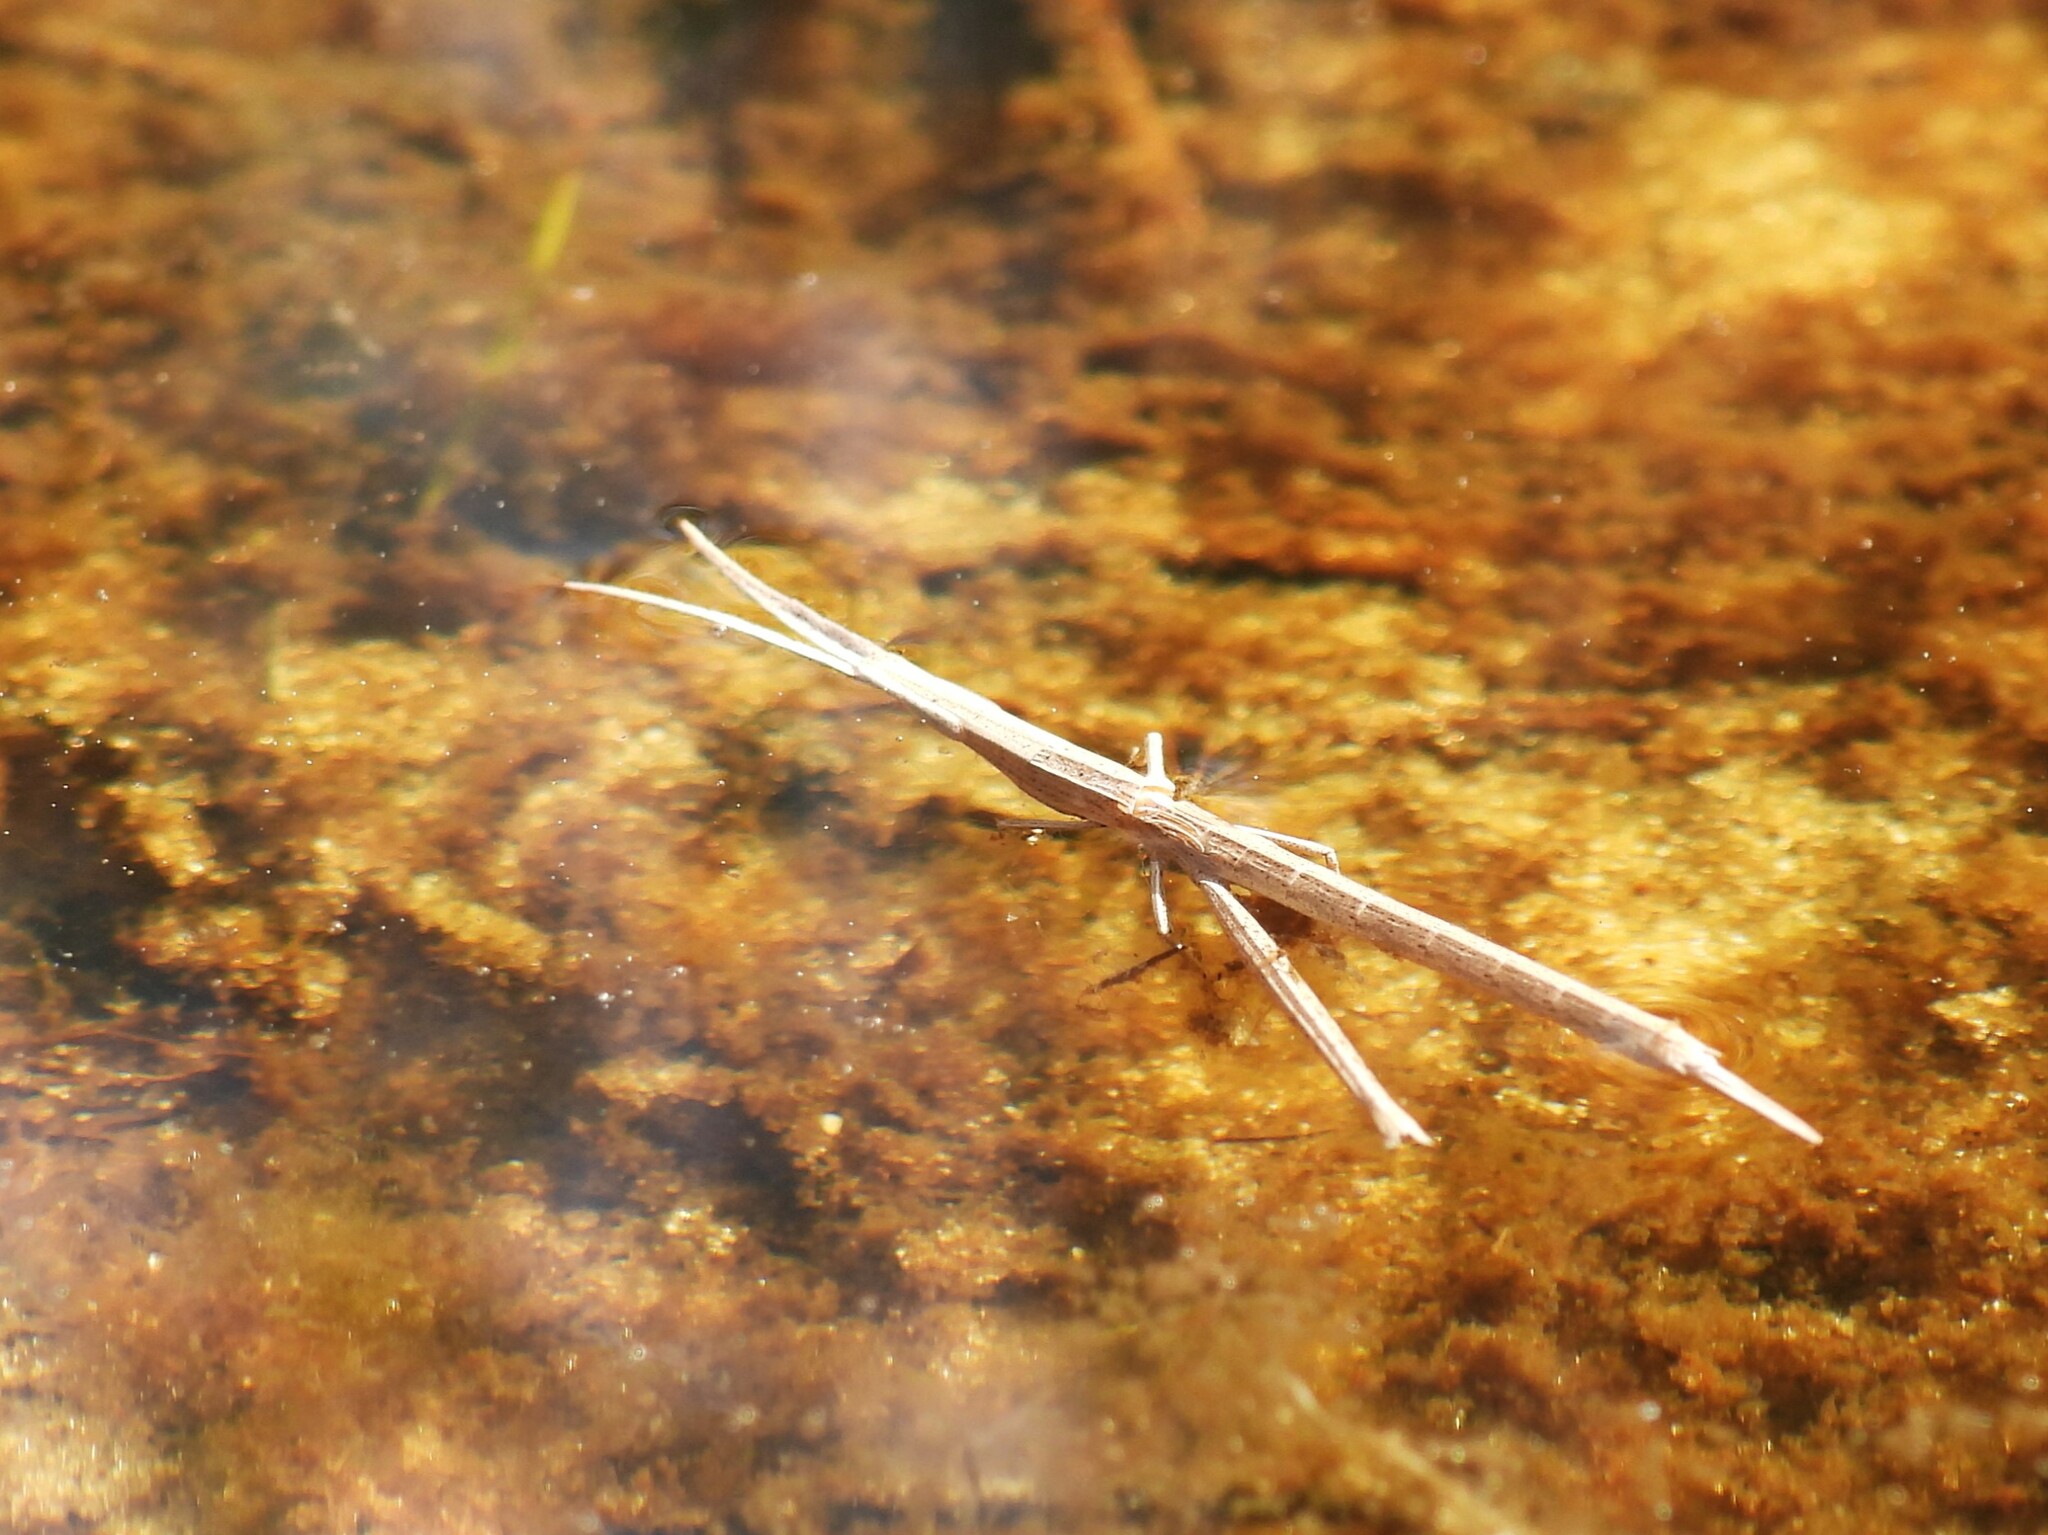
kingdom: Animalia
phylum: Arthropoda
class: Insecta
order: Orthoptera
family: Acrididae
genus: Achurum
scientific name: Achurum carinatum
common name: Long-headed toothpick grasshopper
